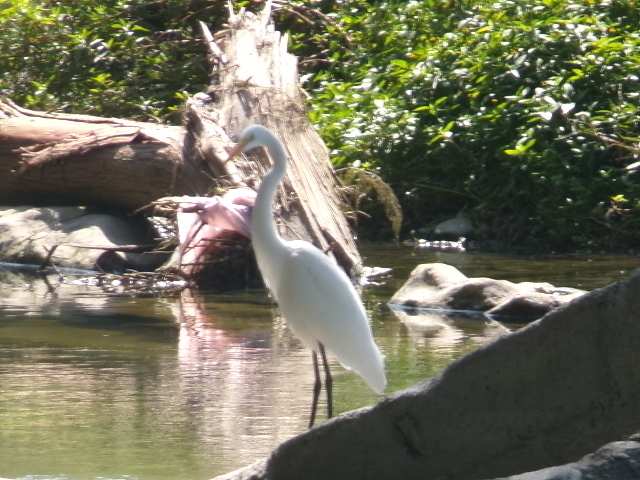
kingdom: Animalia
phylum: Chordata
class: Aves
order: Pelecaniformes
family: Ardeidae
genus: Ardea
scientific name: Ardea alba
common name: Great egret
